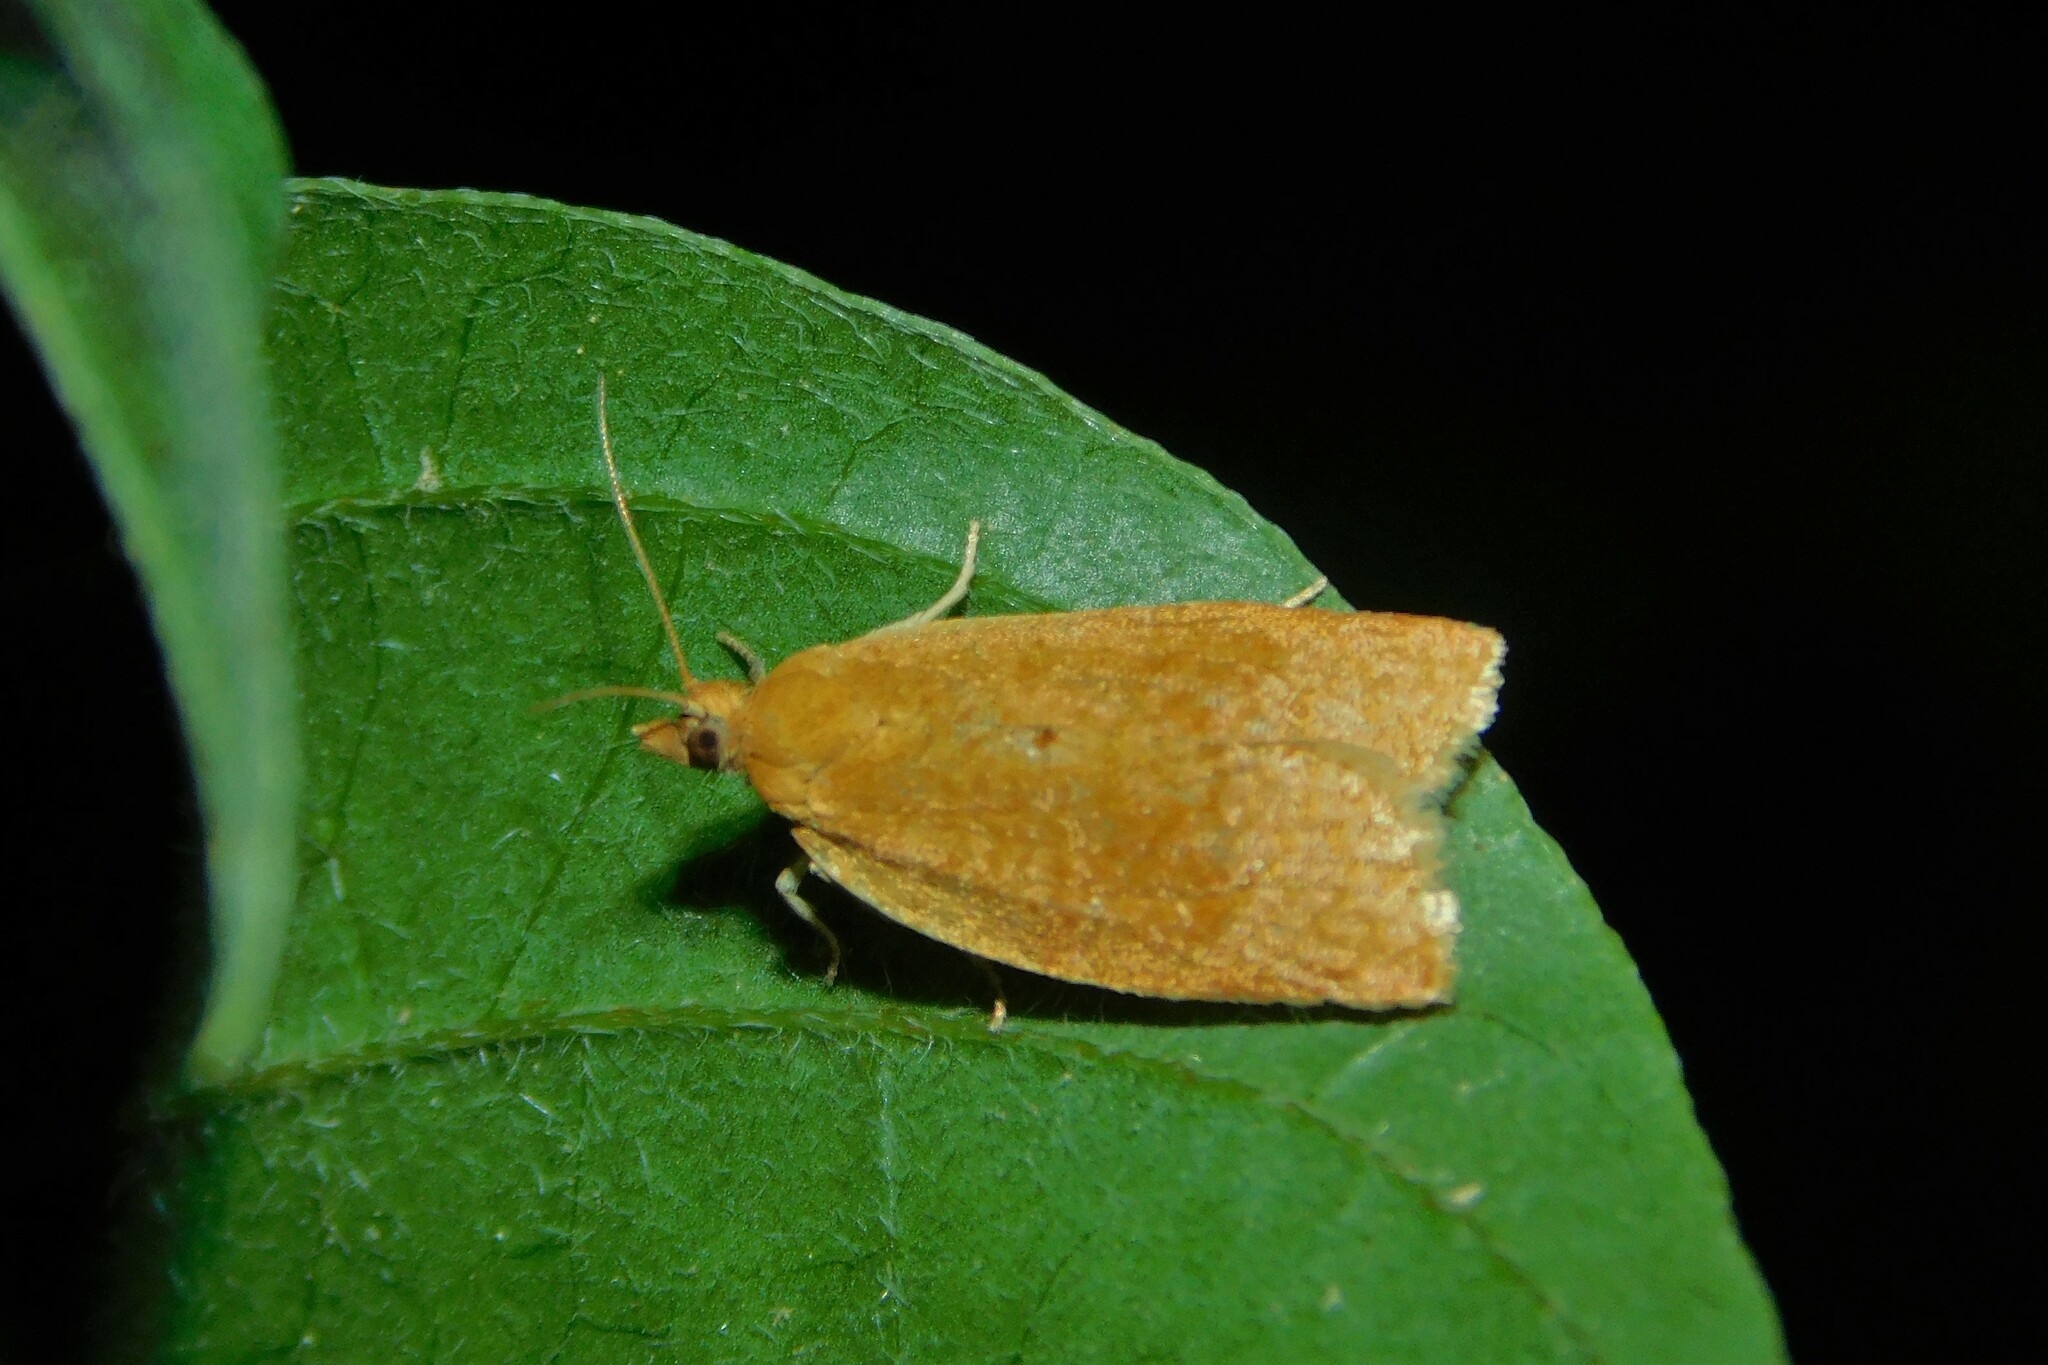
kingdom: Animalia
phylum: Arthropoda
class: Insecta
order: Lepidoptera
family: Tortricidae
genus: Clepsis
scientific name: Clepsis consimilana
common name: Privet tortrix
